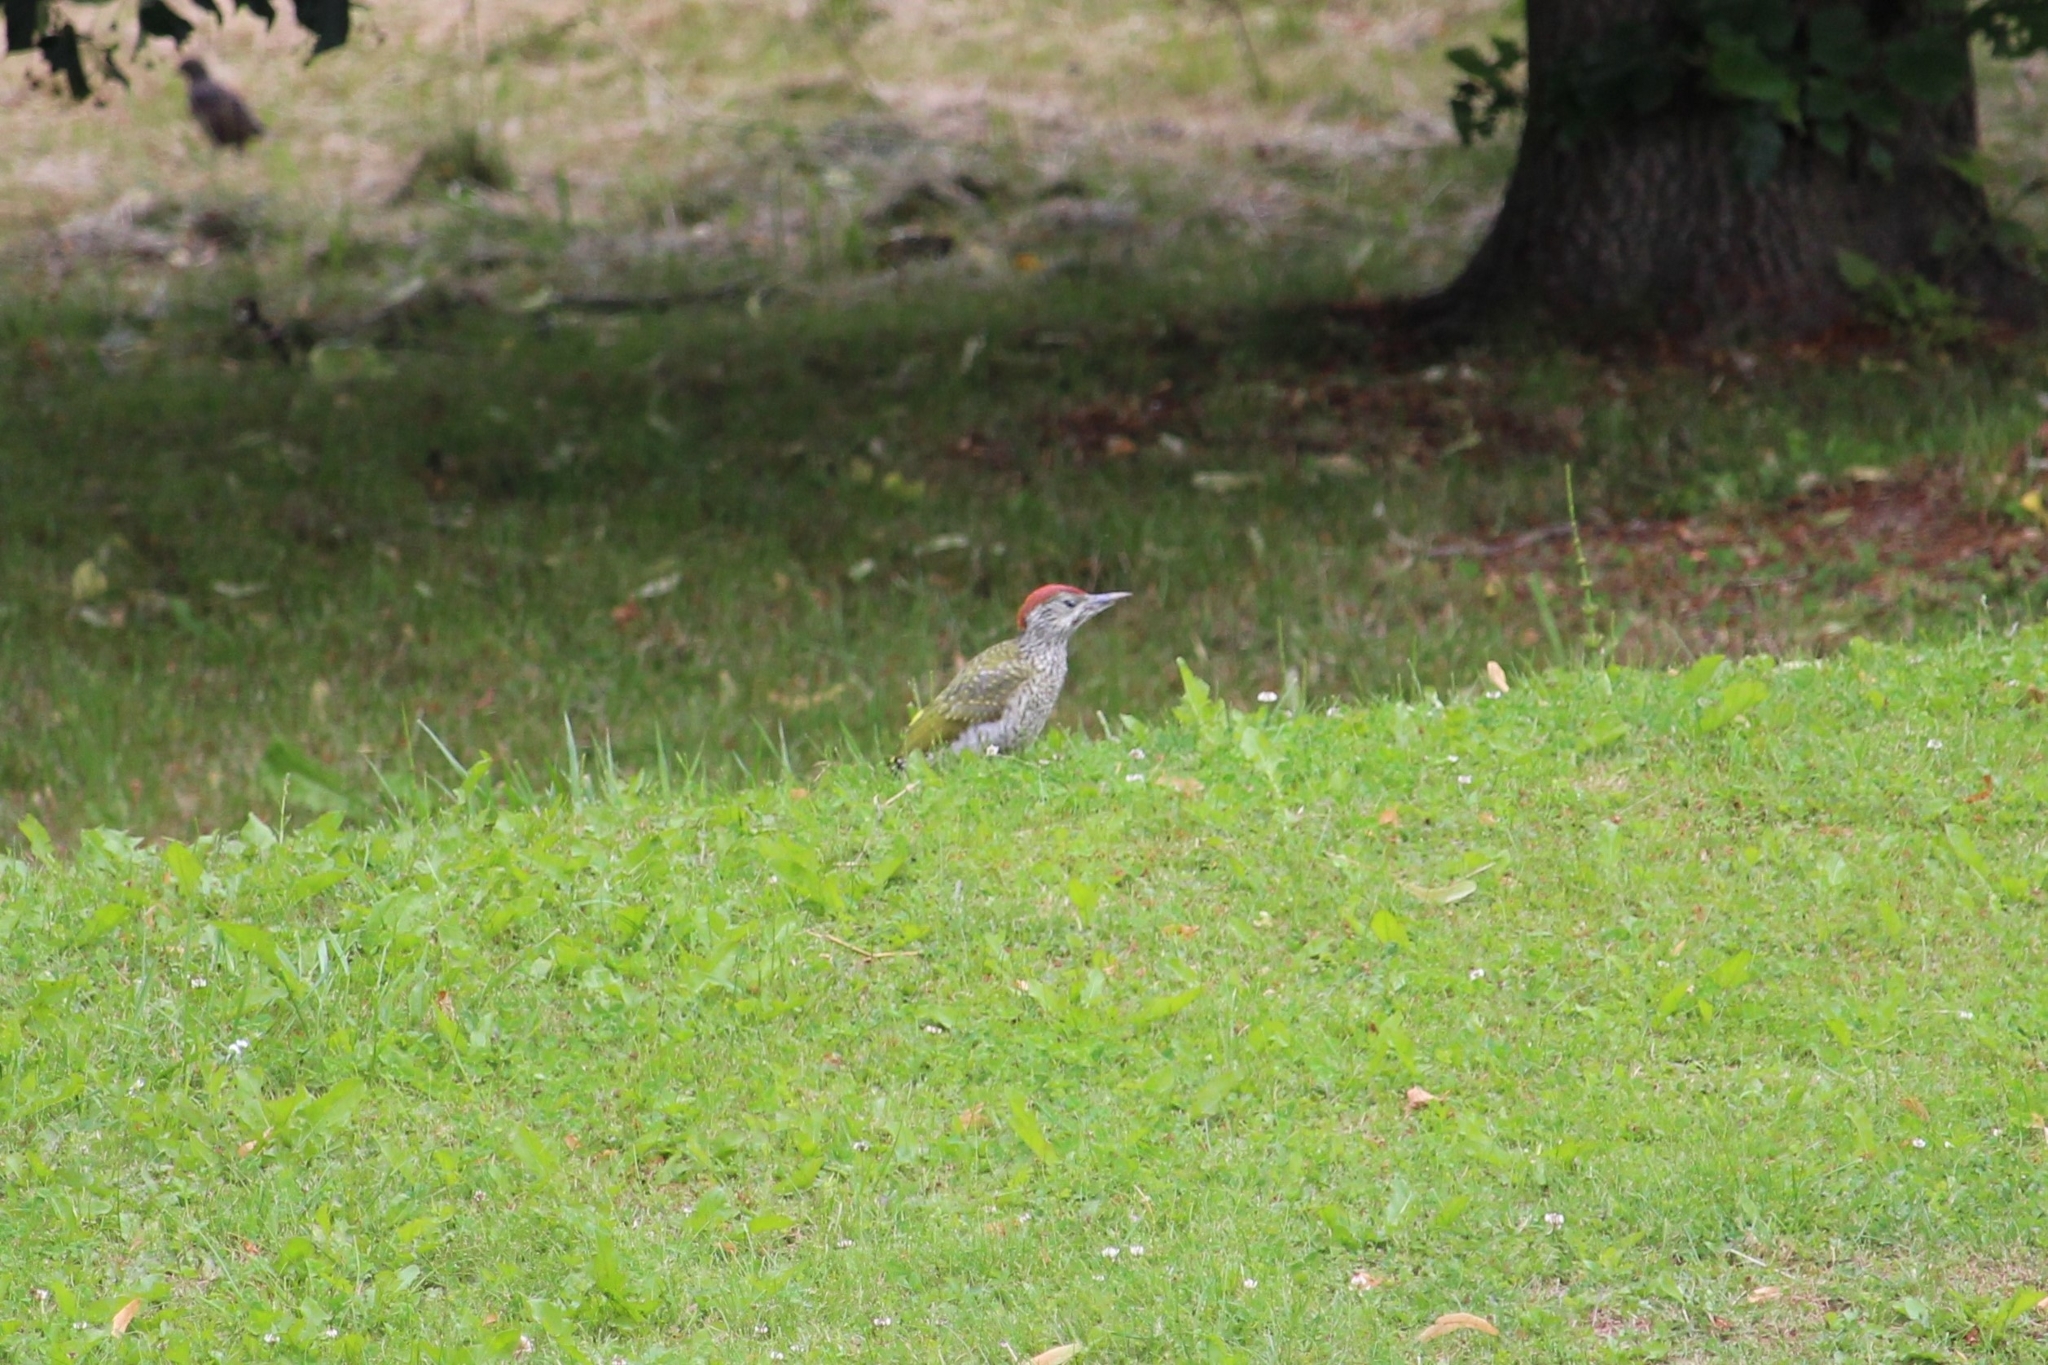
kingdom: Animalia
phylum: Chordata
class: Aves
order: Piciformes
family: Picidae
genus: Picus
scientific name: Picus viridis
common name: European green woodpecker
